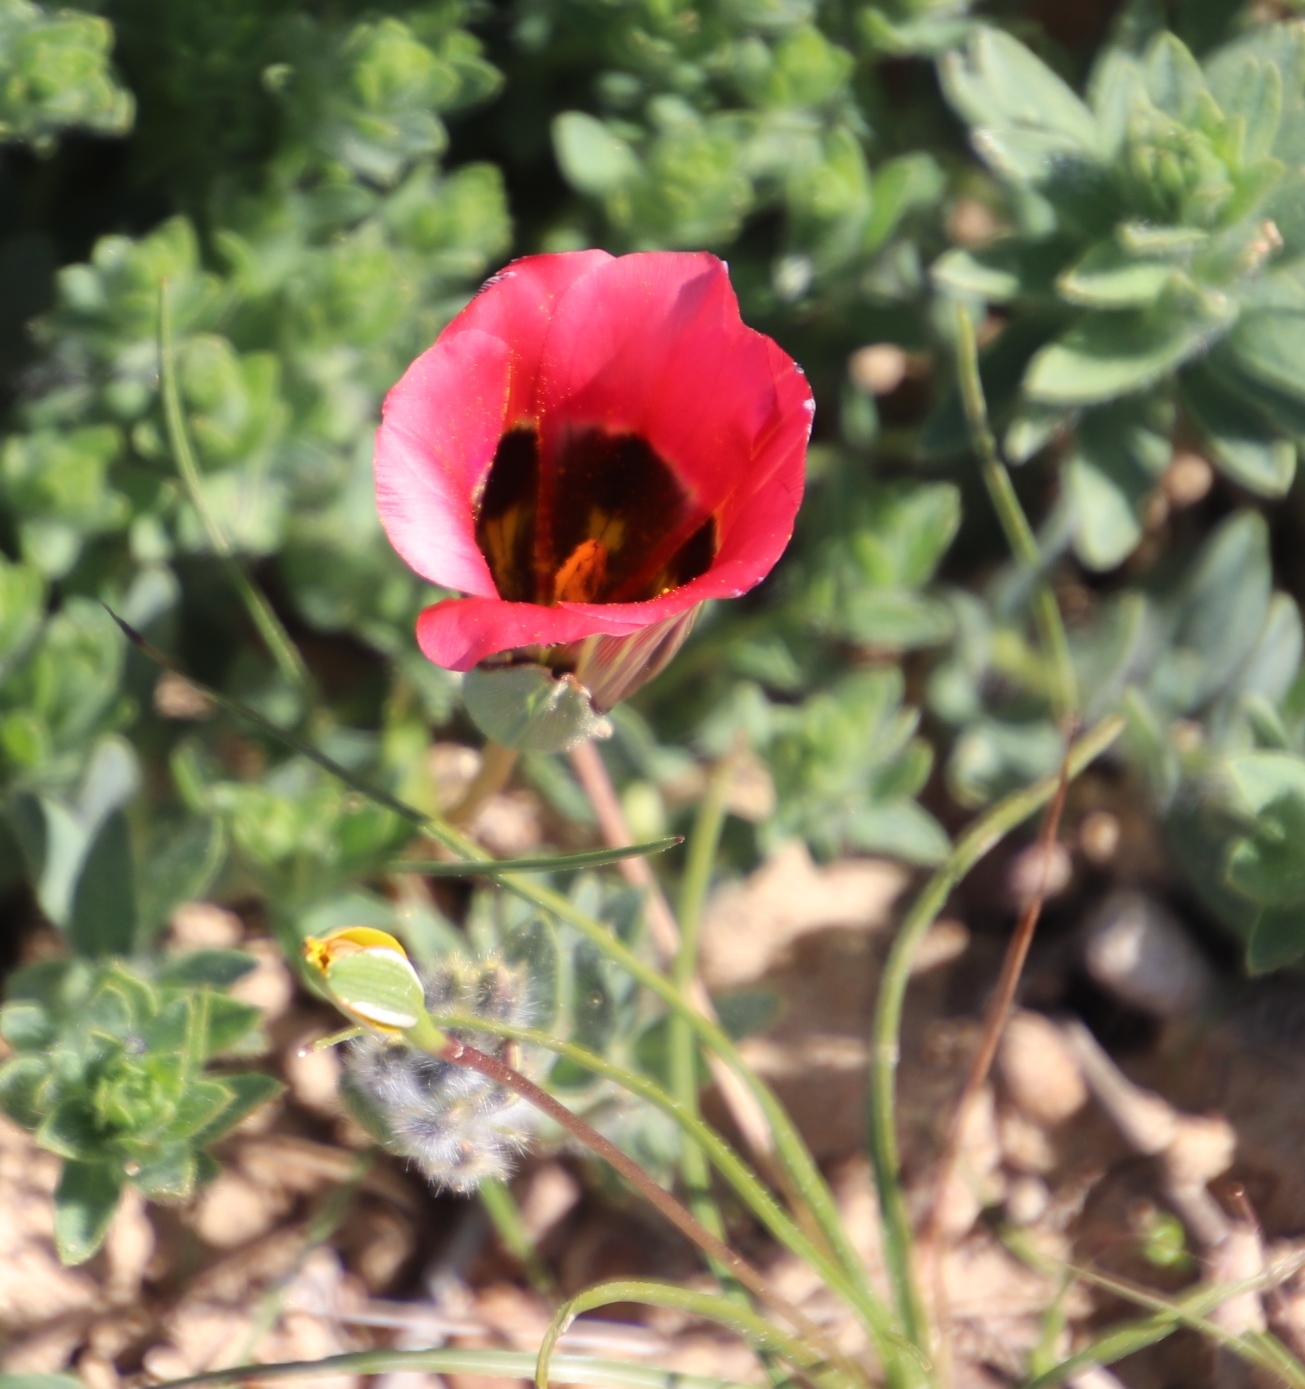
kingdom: Plantae
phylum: Tracheophyta
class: Liliopsida
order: Asparagales
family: Iridaceae
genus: Romulea
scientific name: Romulea sabulosa
